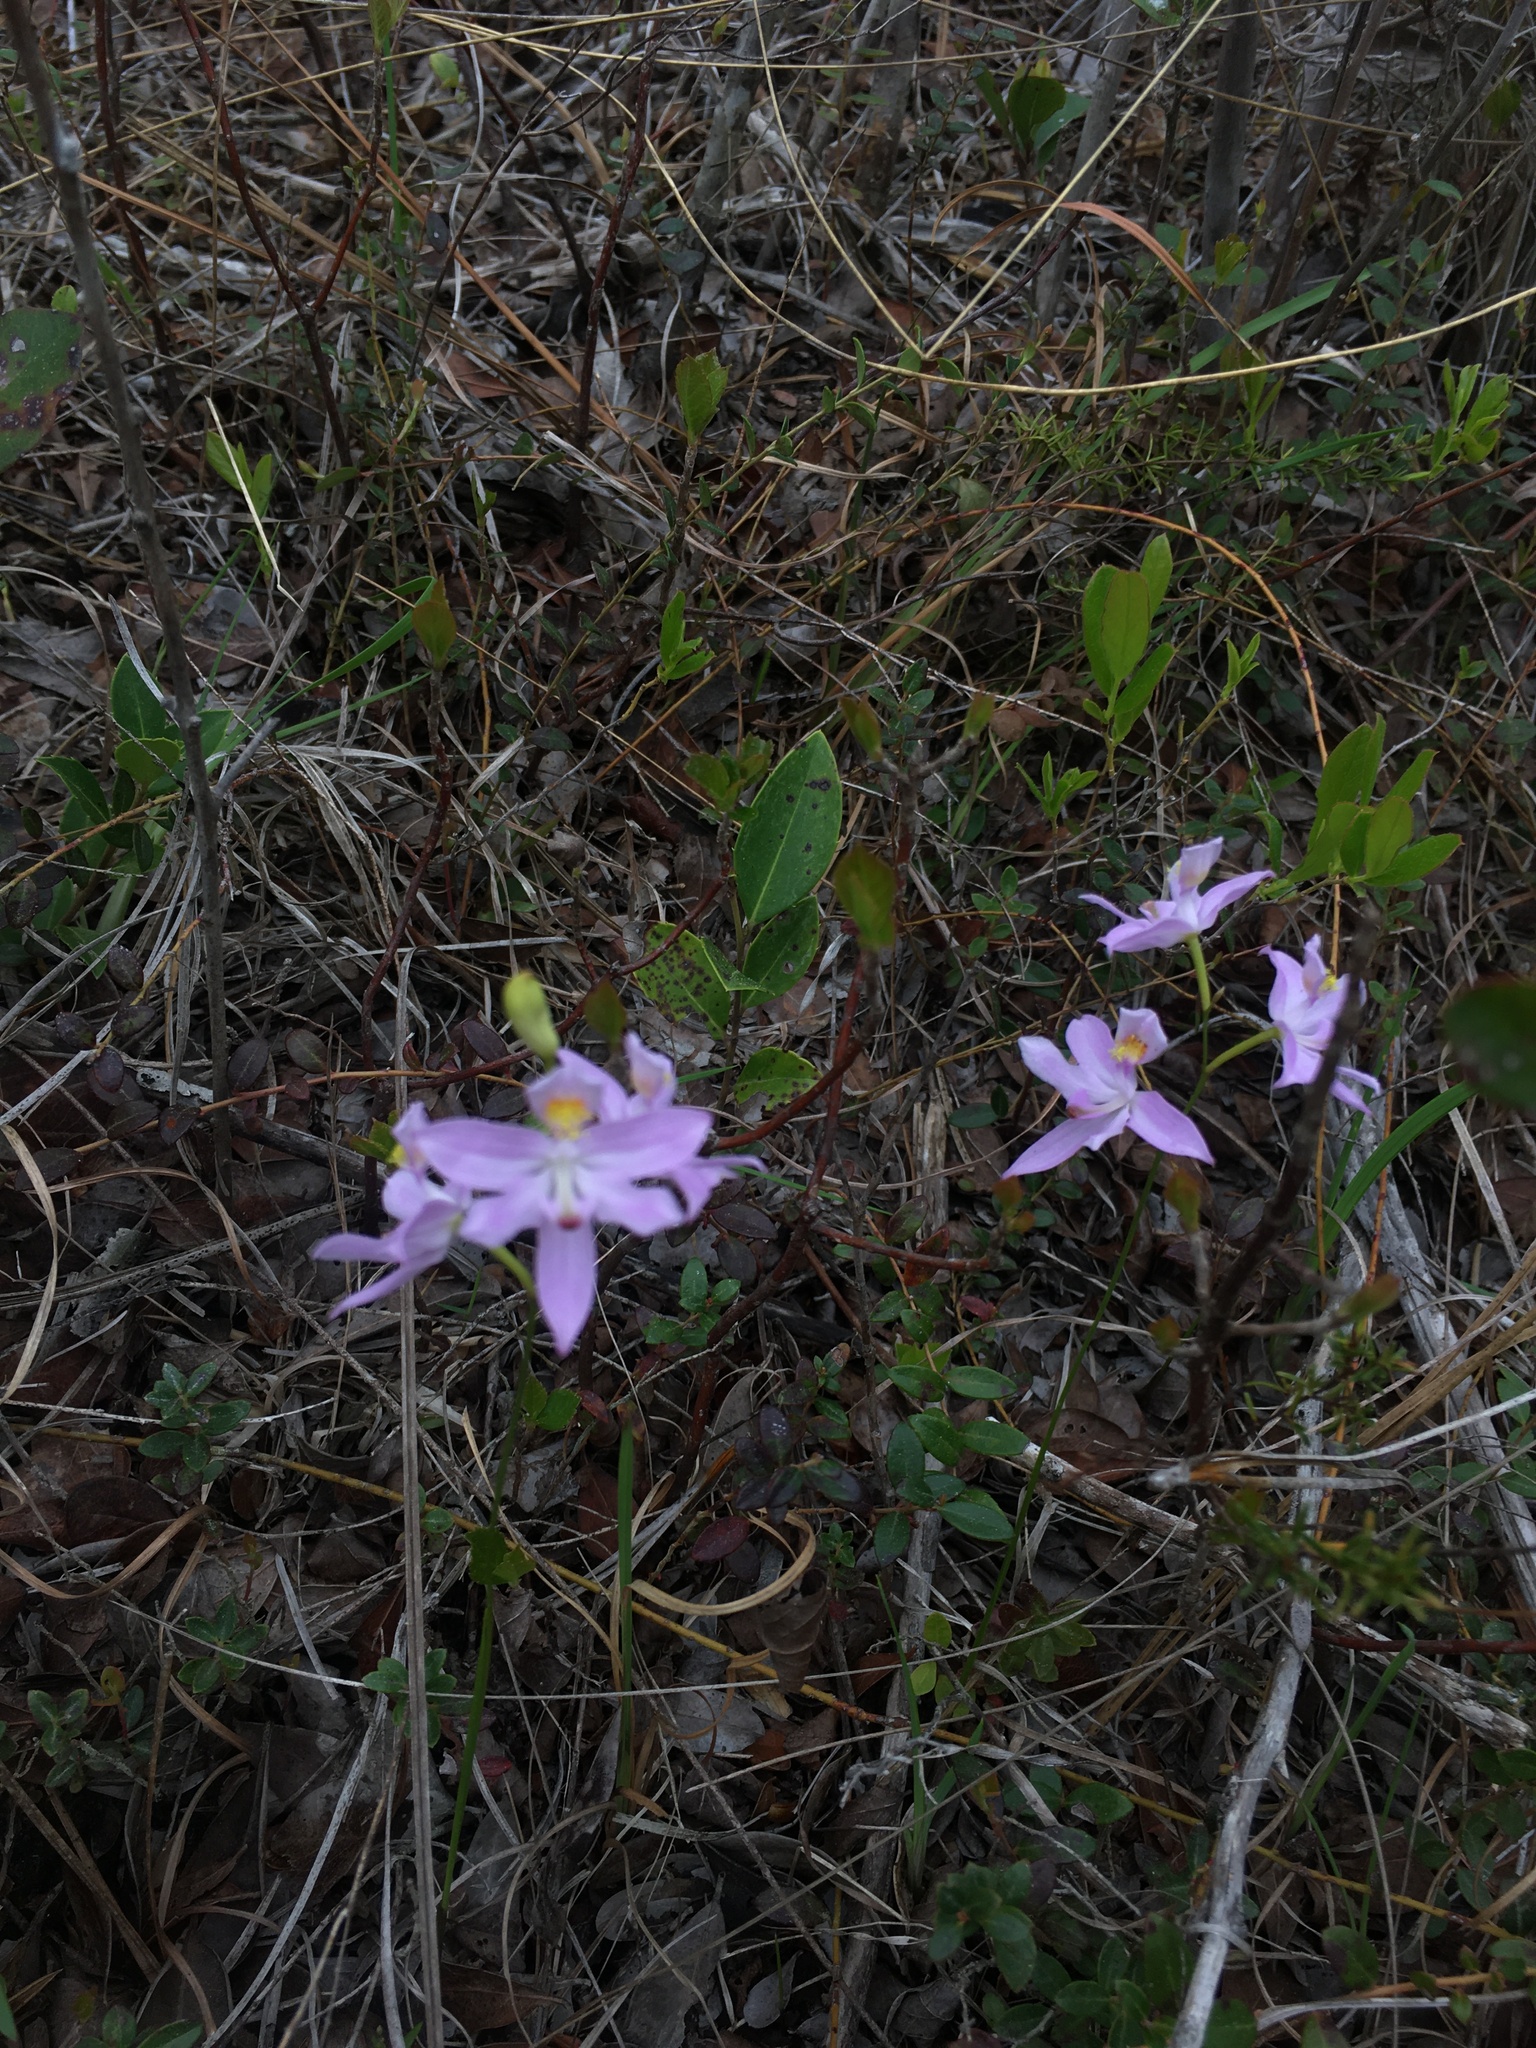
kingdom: Plantae
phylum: Tracheophyta
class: Liliopsida
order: Asparagales
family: Orchidaceae
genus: Calopogon
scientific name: Calopogon barbatus
